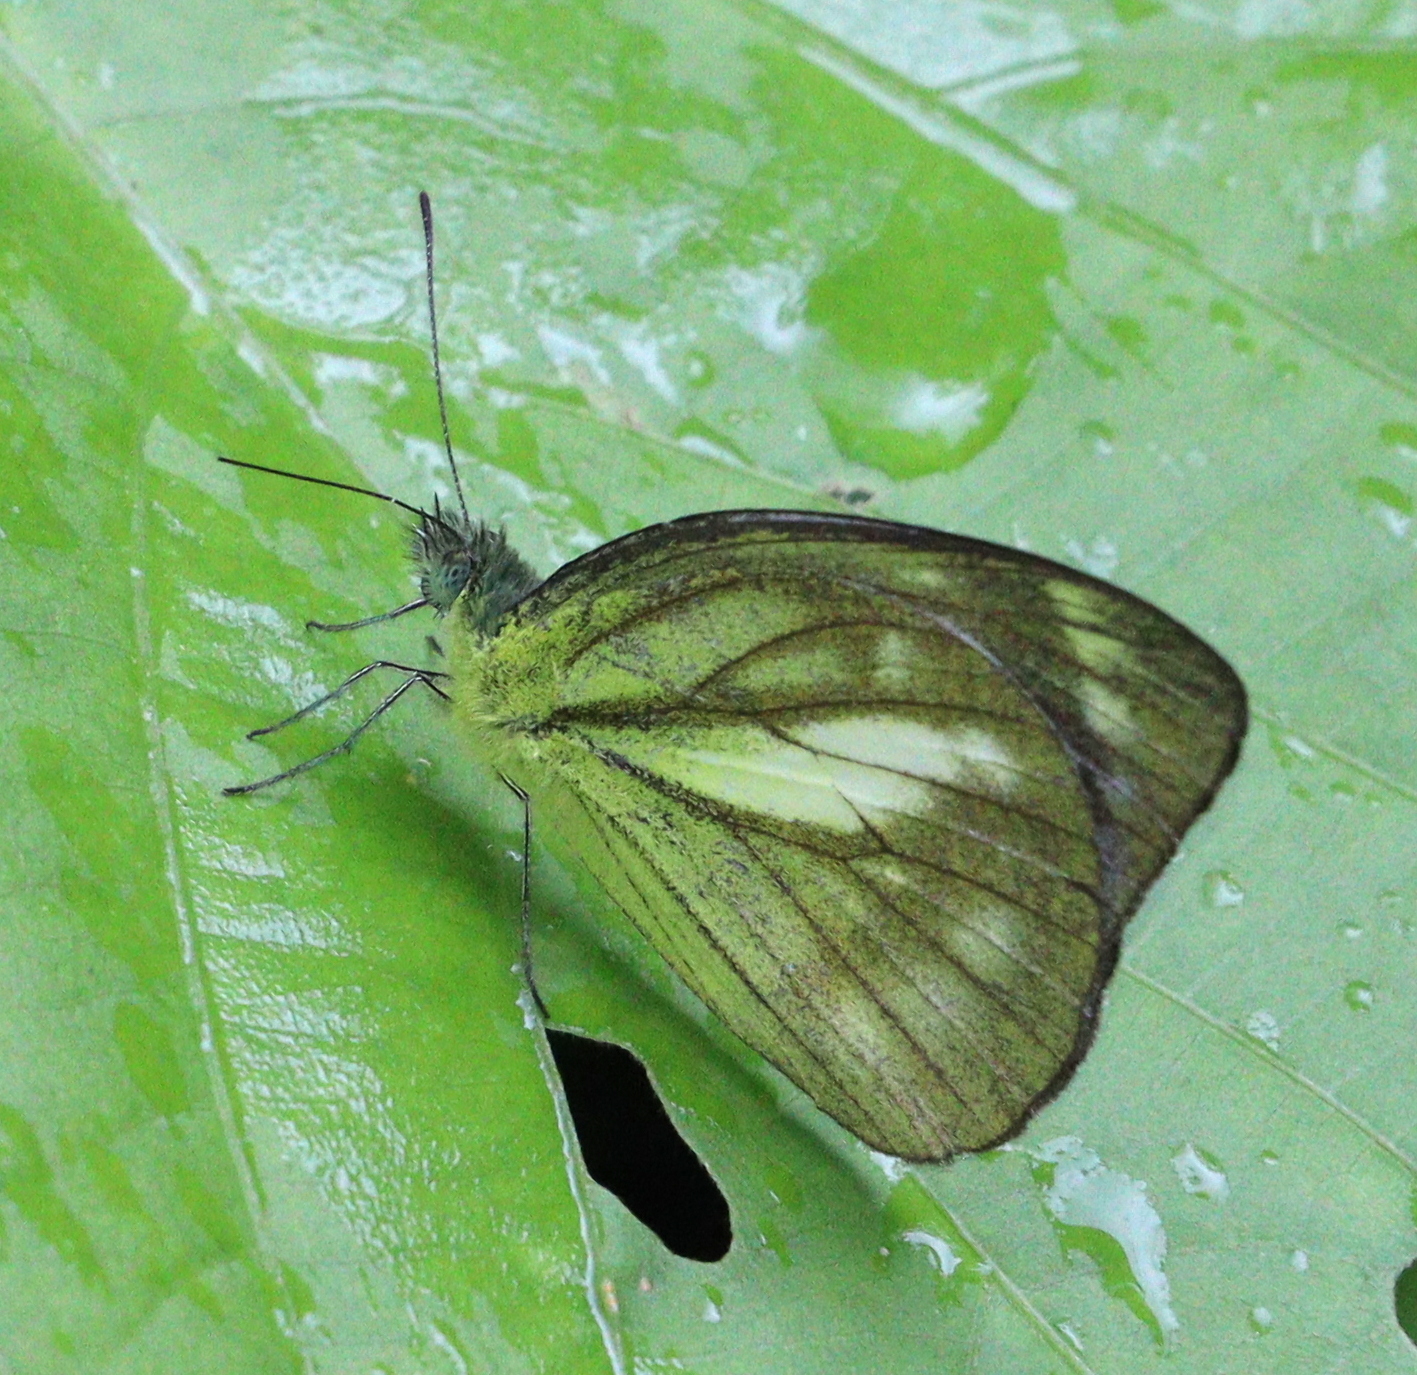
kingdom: Animalia
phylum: Arthropoda
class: Insecta
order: Lepidoptera
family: Pieridae
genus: Cepora
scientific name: Cepora nadina
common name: Lesser gull
